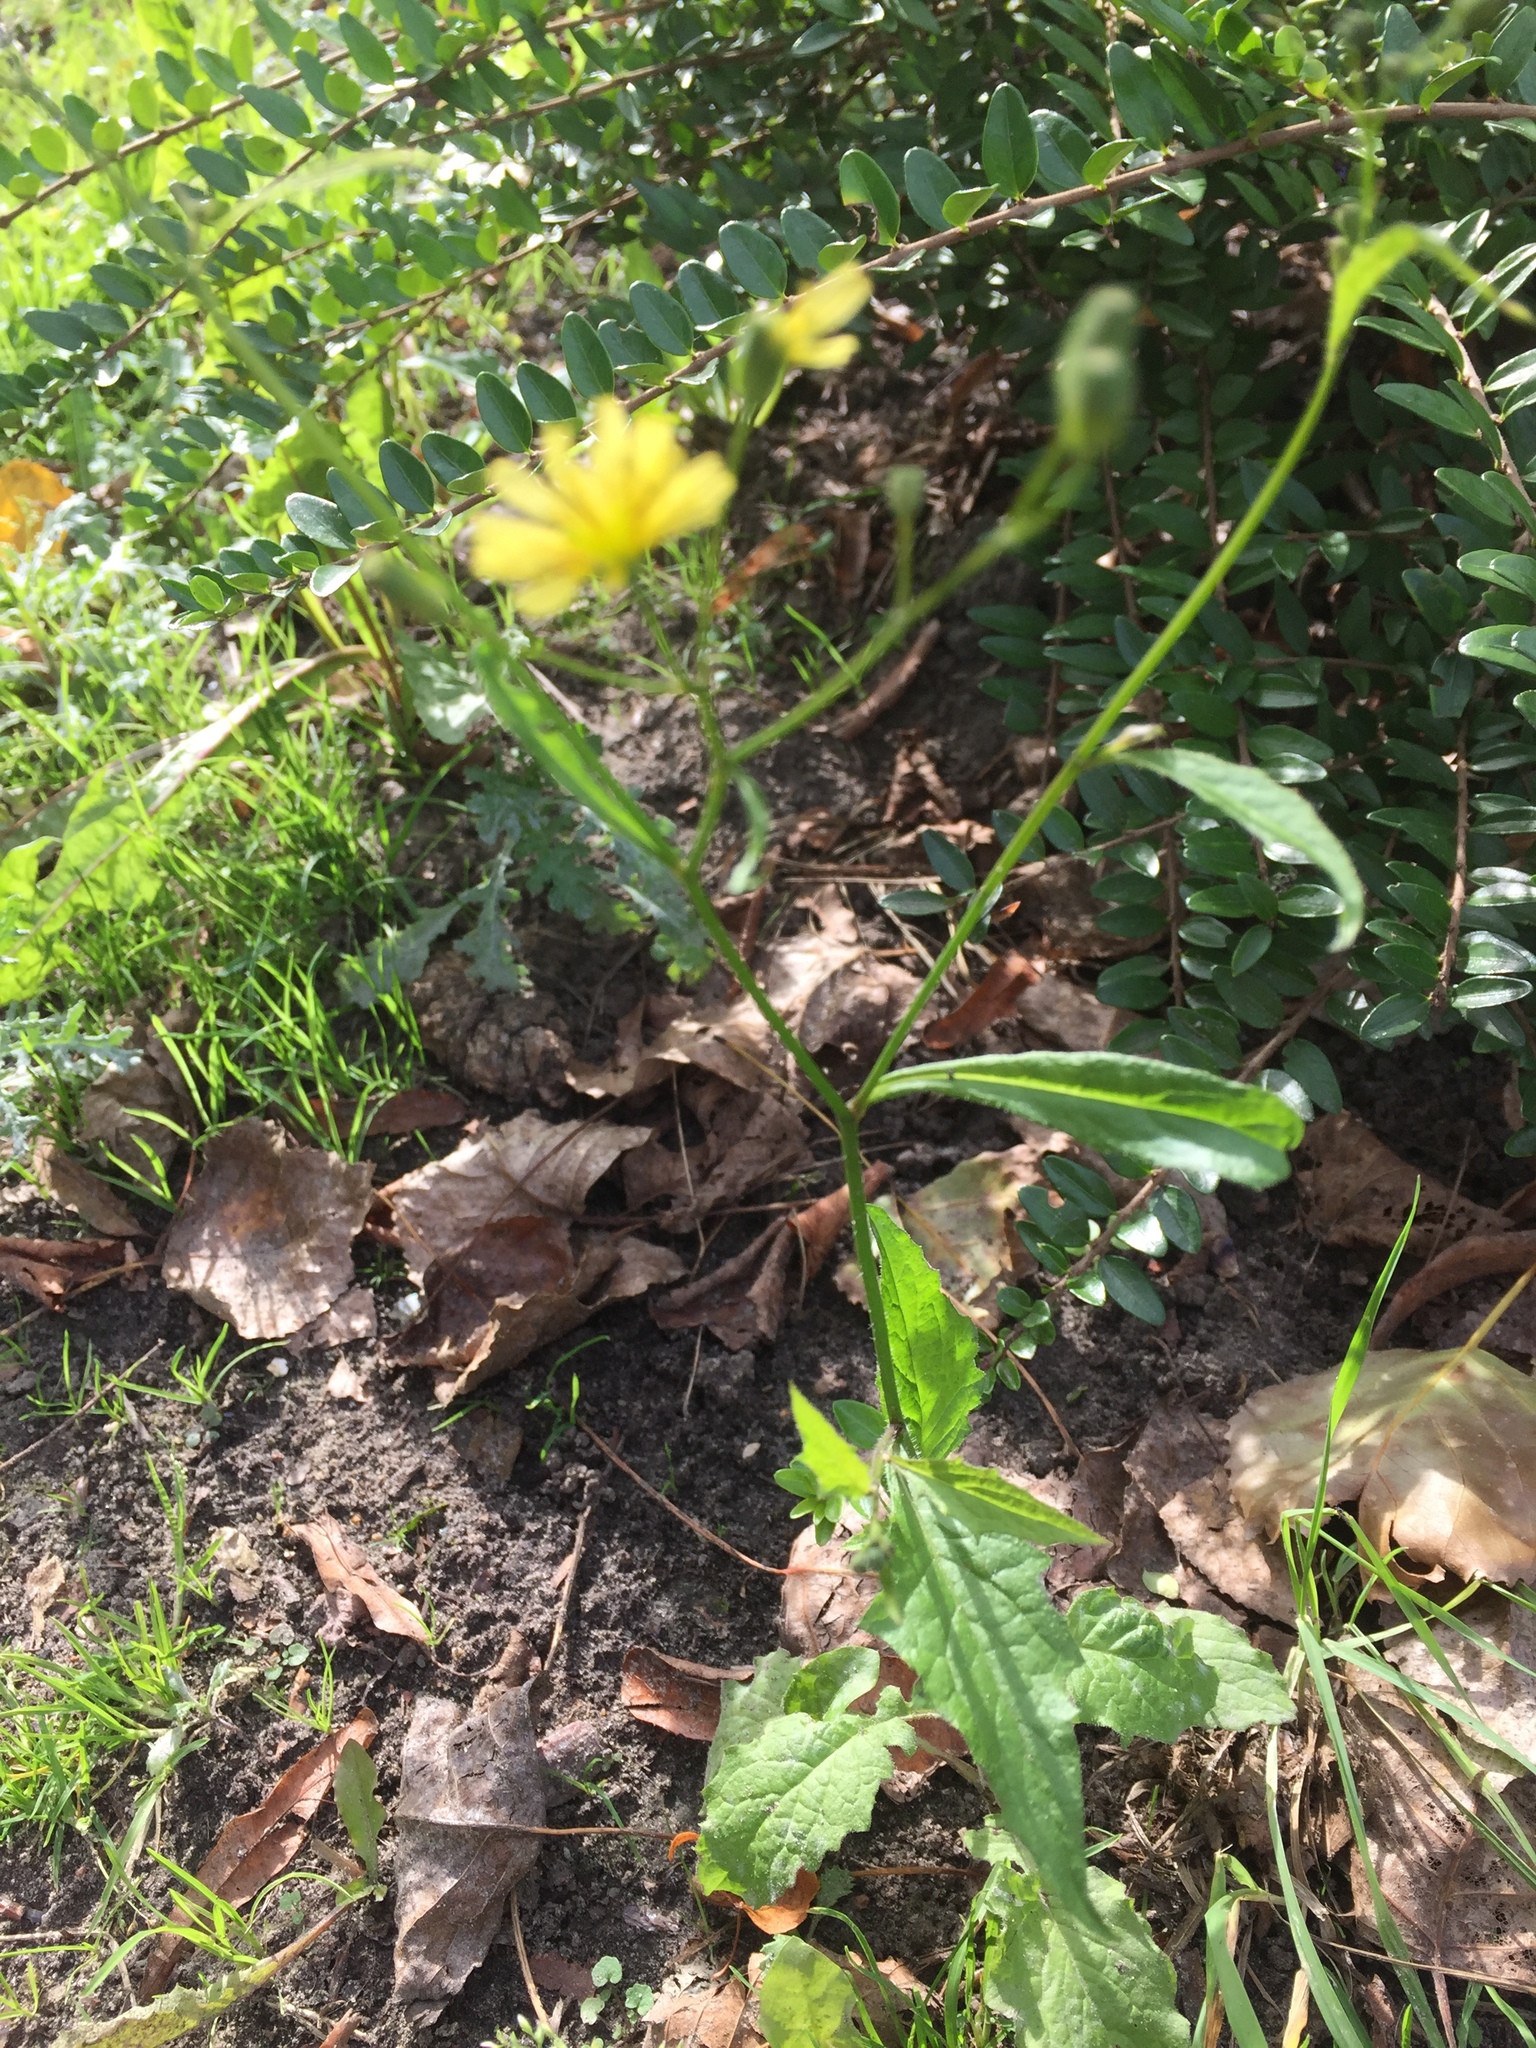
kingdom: Plantae
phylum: Tracheophyta
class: Magnoliopsida
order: Asterales
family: Asteraceae
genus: Lapsana
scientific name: Lapsana communis
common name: Nipplewort
